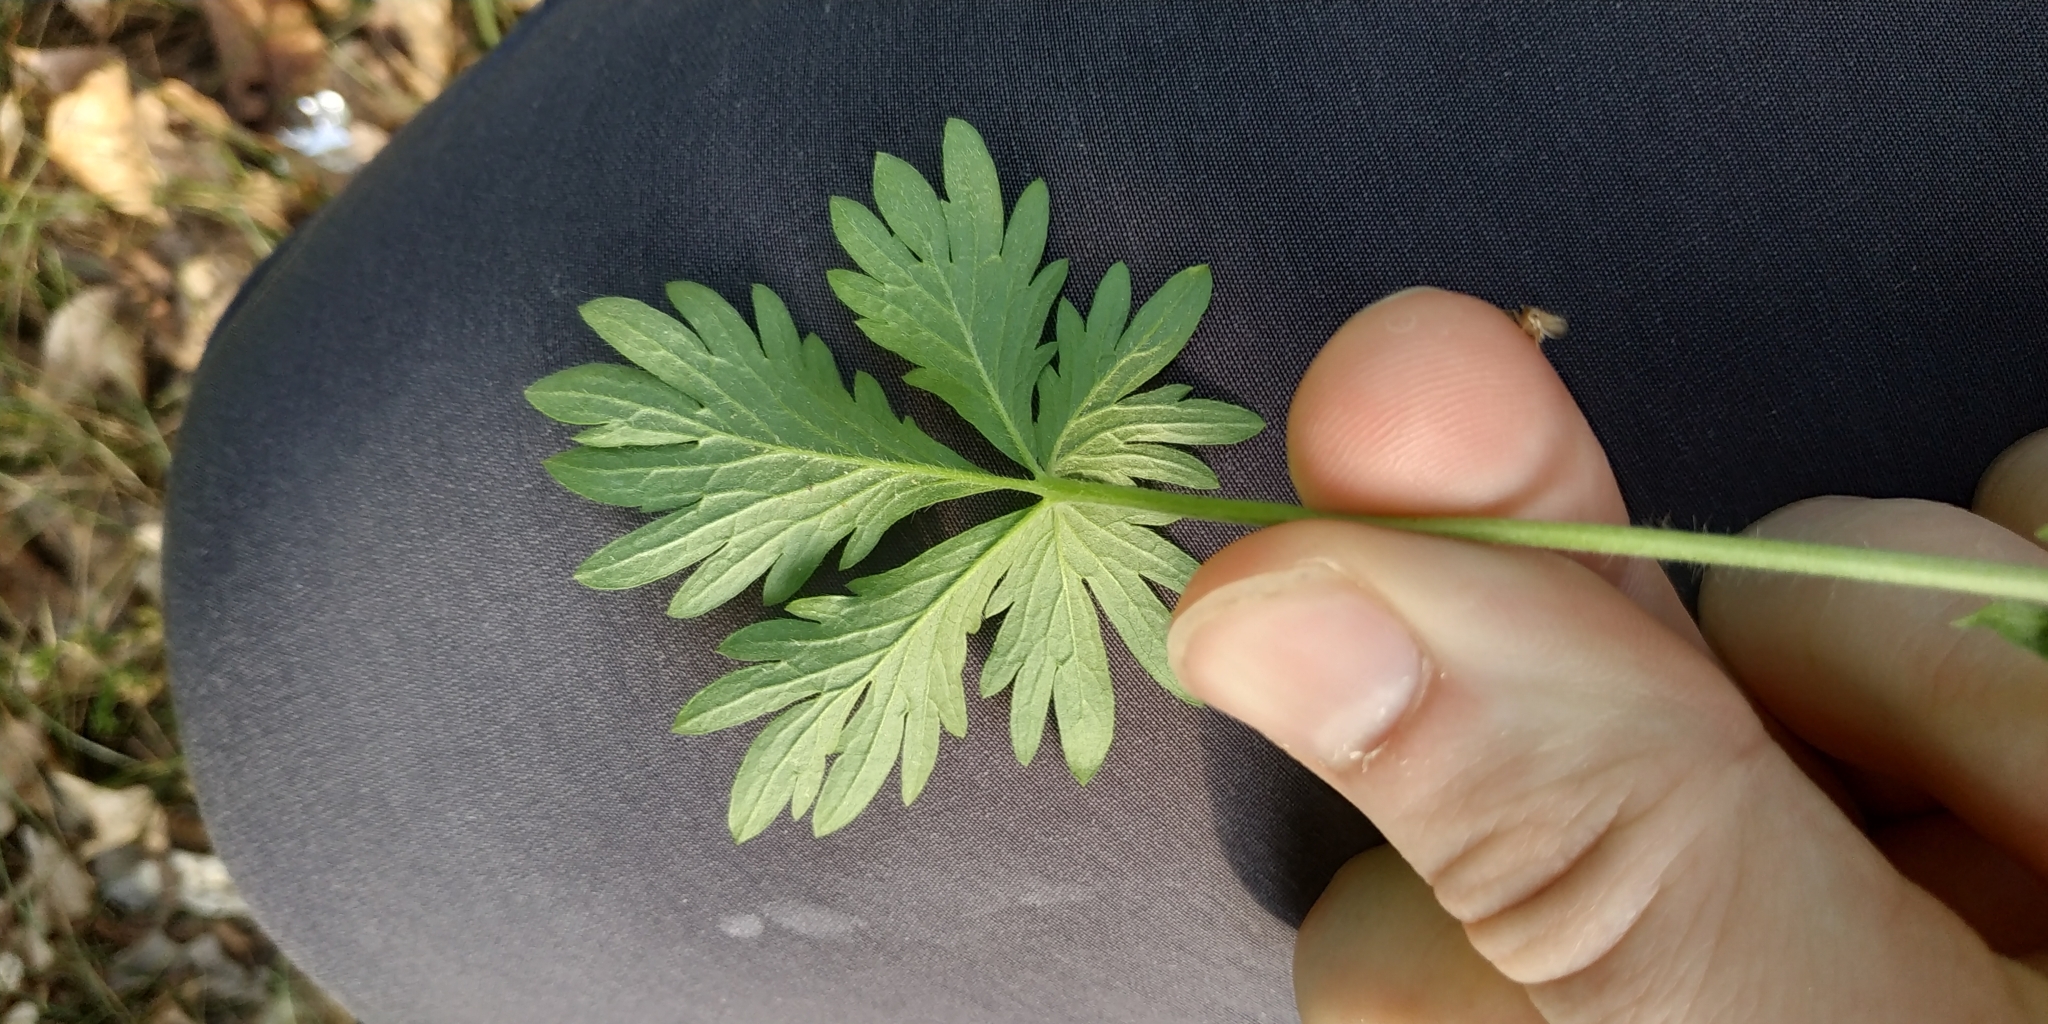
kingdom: Plantae
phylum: Tracheophyta
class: Magnoliopsida
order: Rosales
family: Rosaceae
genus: Potentilla
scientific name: Potentilla intermedia
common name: Downy cinquefoil
